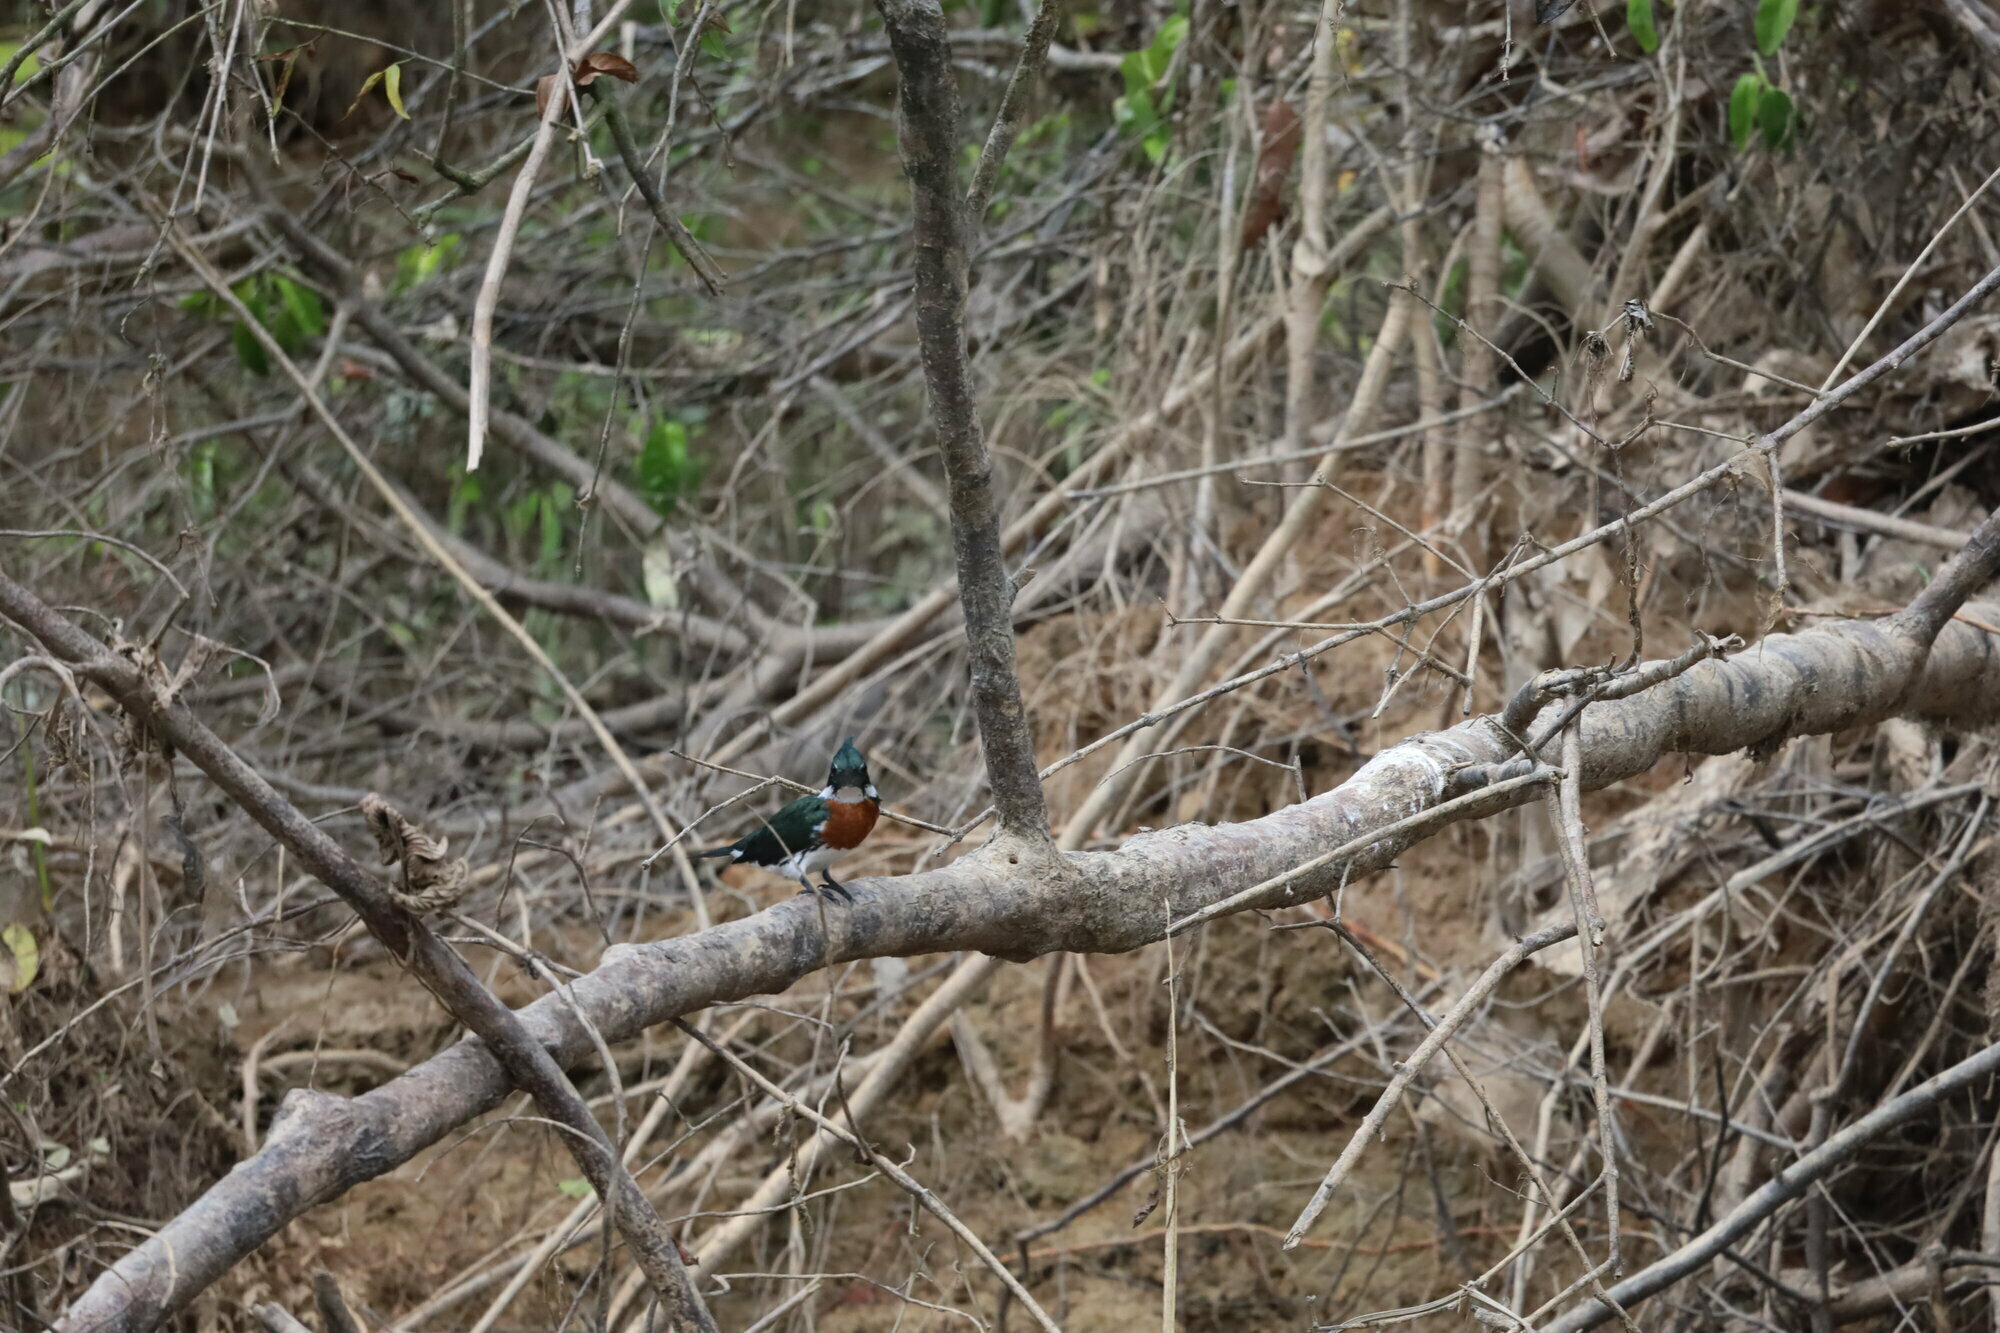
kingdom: Animalia
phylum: Chordata
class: Aves
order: Coraciiformes
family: Alcedinidae
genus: Chloroceryle
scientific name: Chloroceryle amazona
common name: Amazon kingfisher
